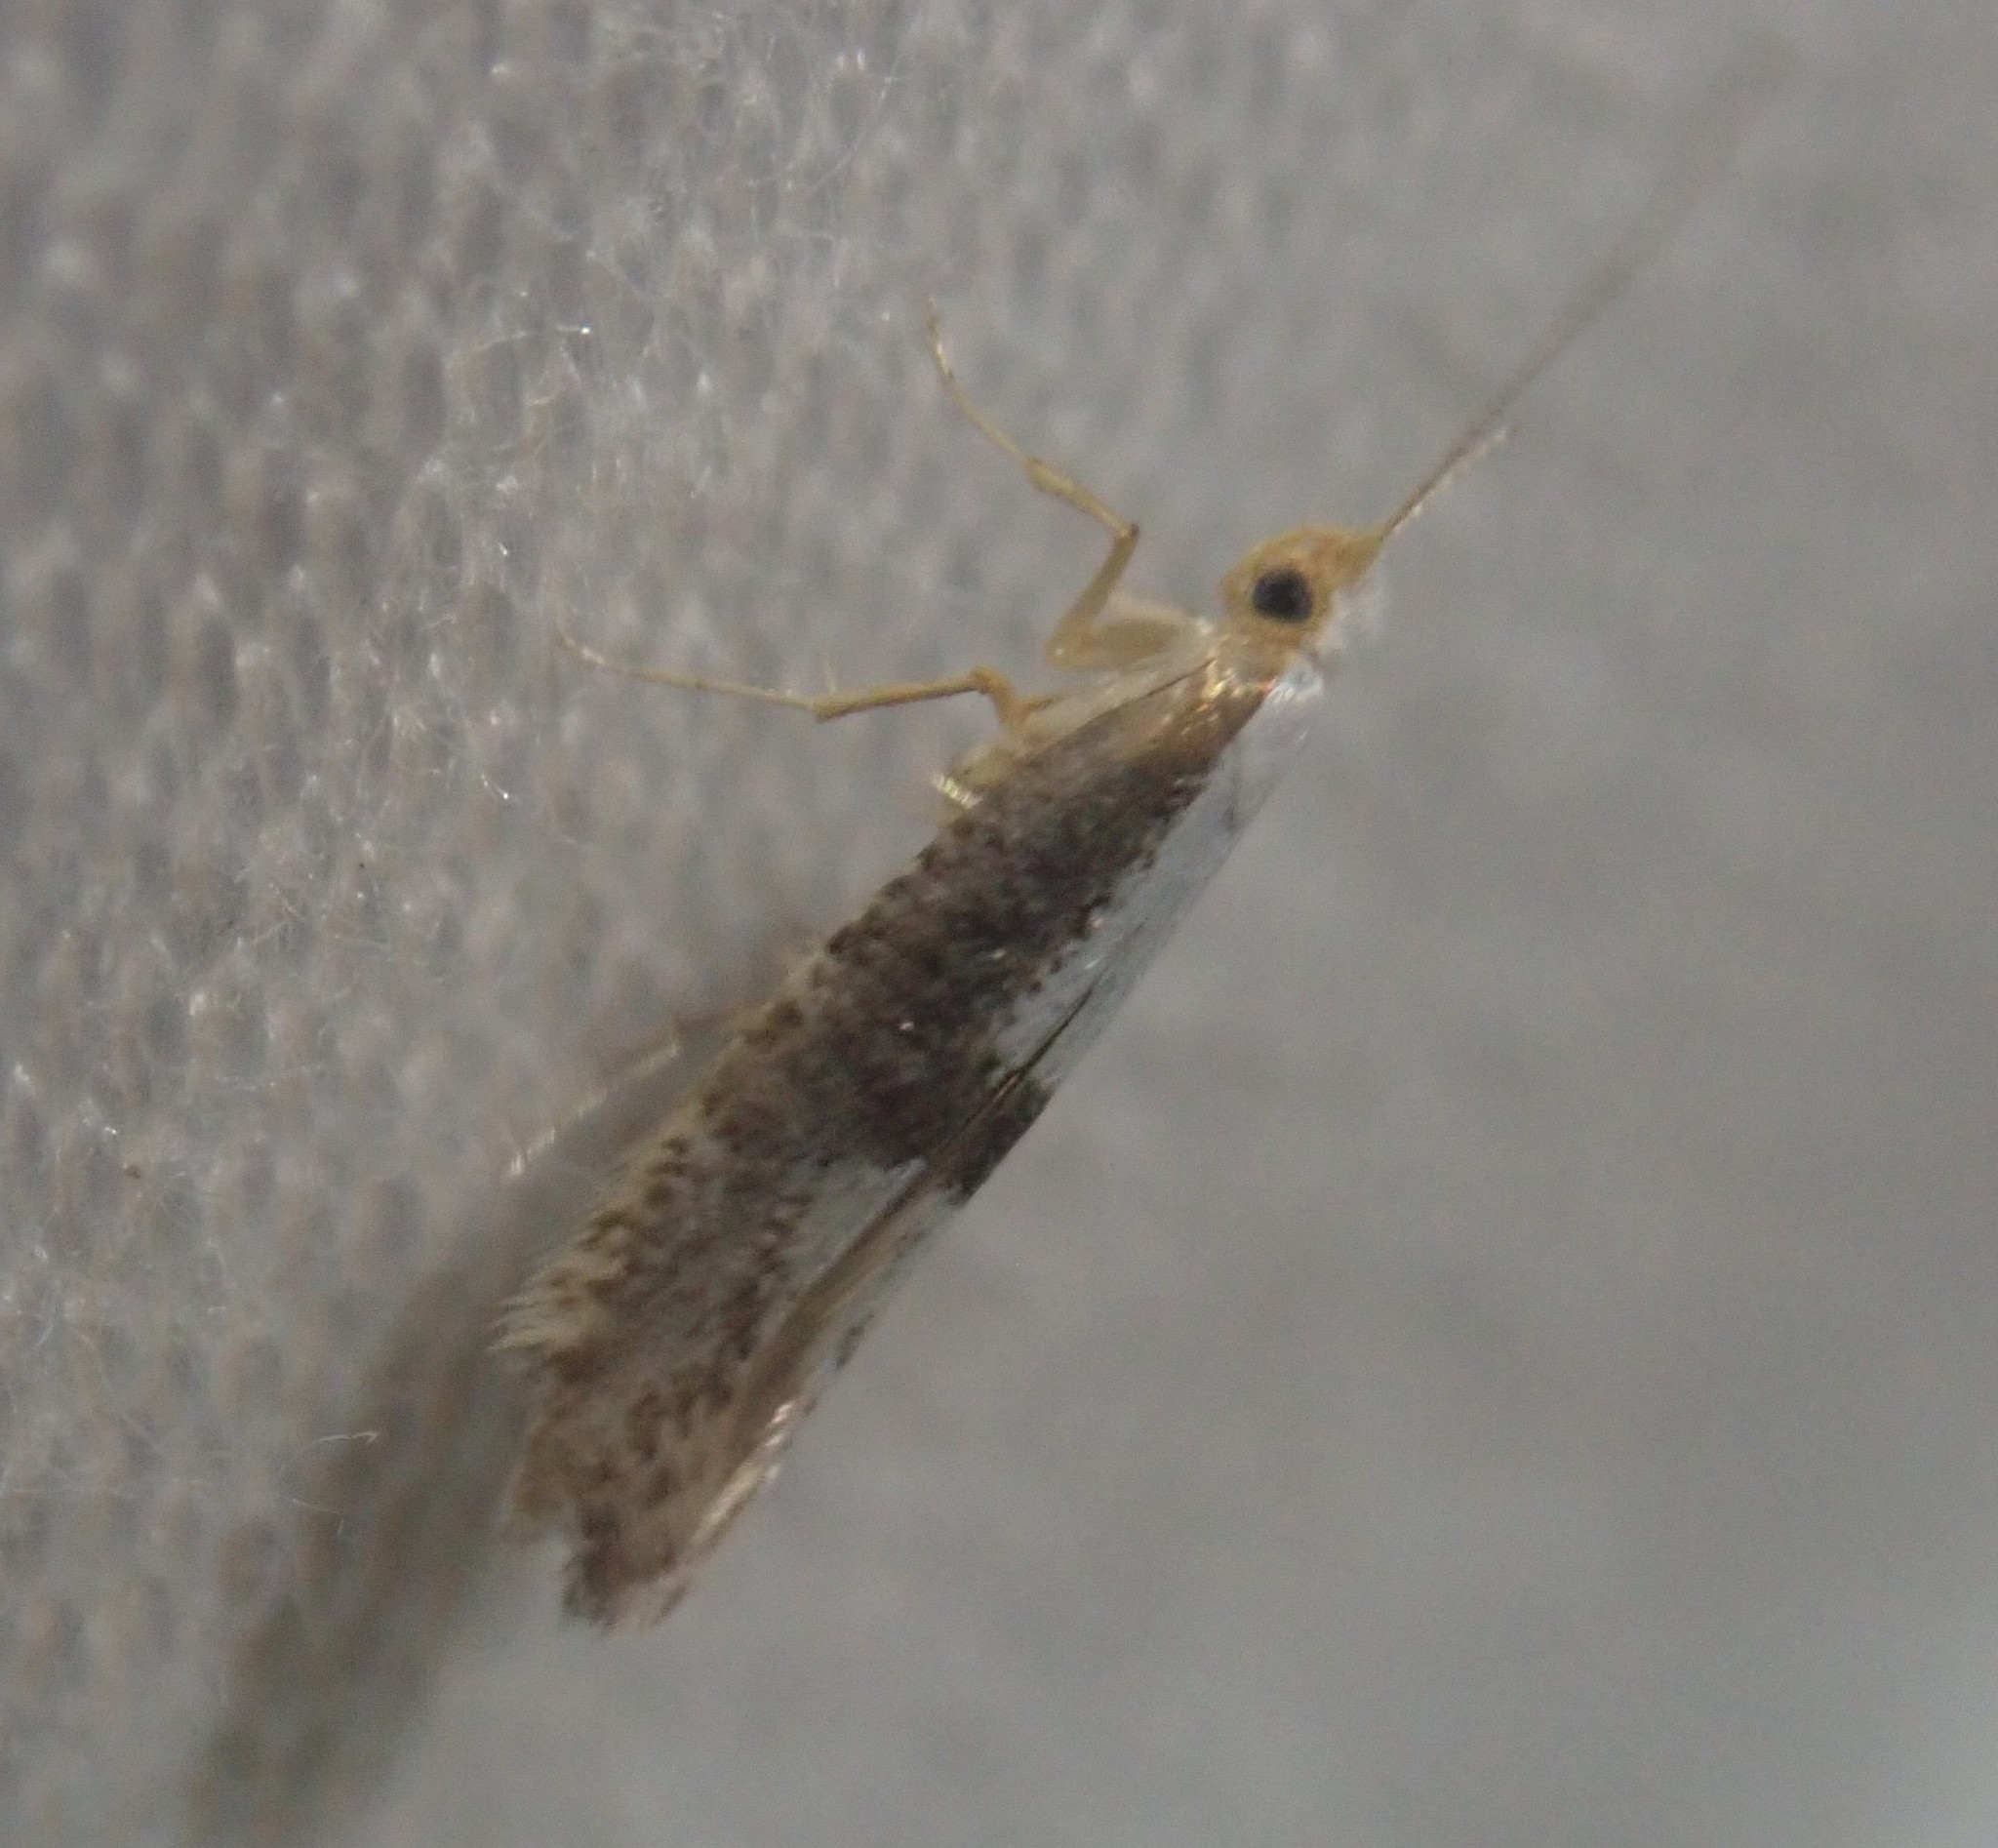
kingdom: Animalia
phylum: Arthropoda
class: Insecta
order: Lepidoptera
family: Argyresthiidae
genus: Argyresthia
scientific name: Argyresthia spinosella
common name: Blackthorn argent
